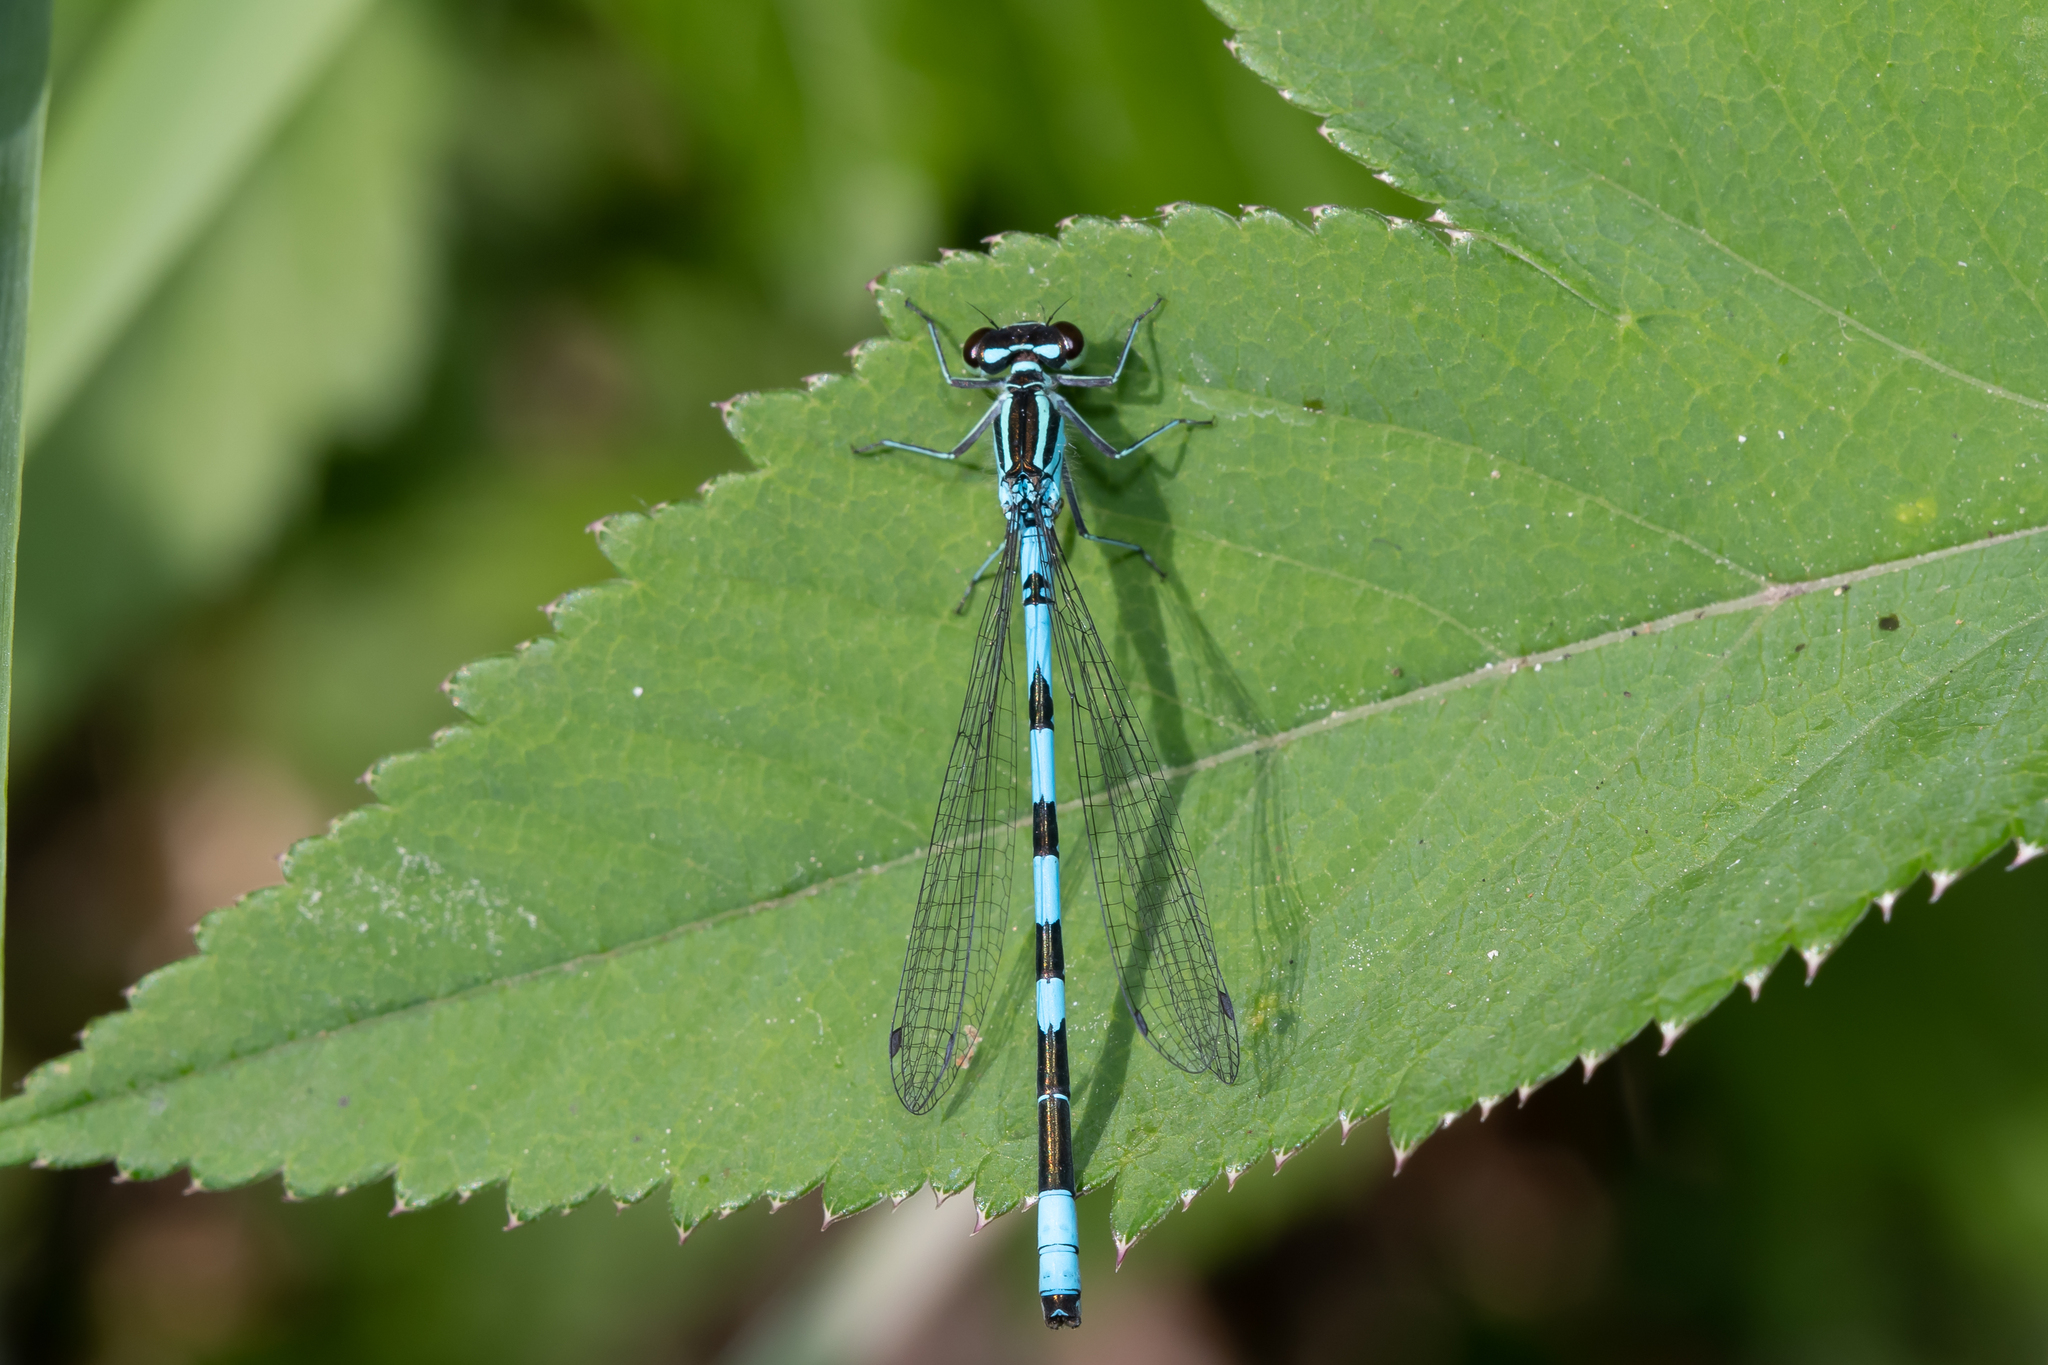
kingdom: Animalia
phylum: Arthropoda
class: Insecta
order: Odonata
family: Coenagrionidae
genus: Coenagrion
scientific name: Coenagrion hastulatum
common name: Spearhead bluet
